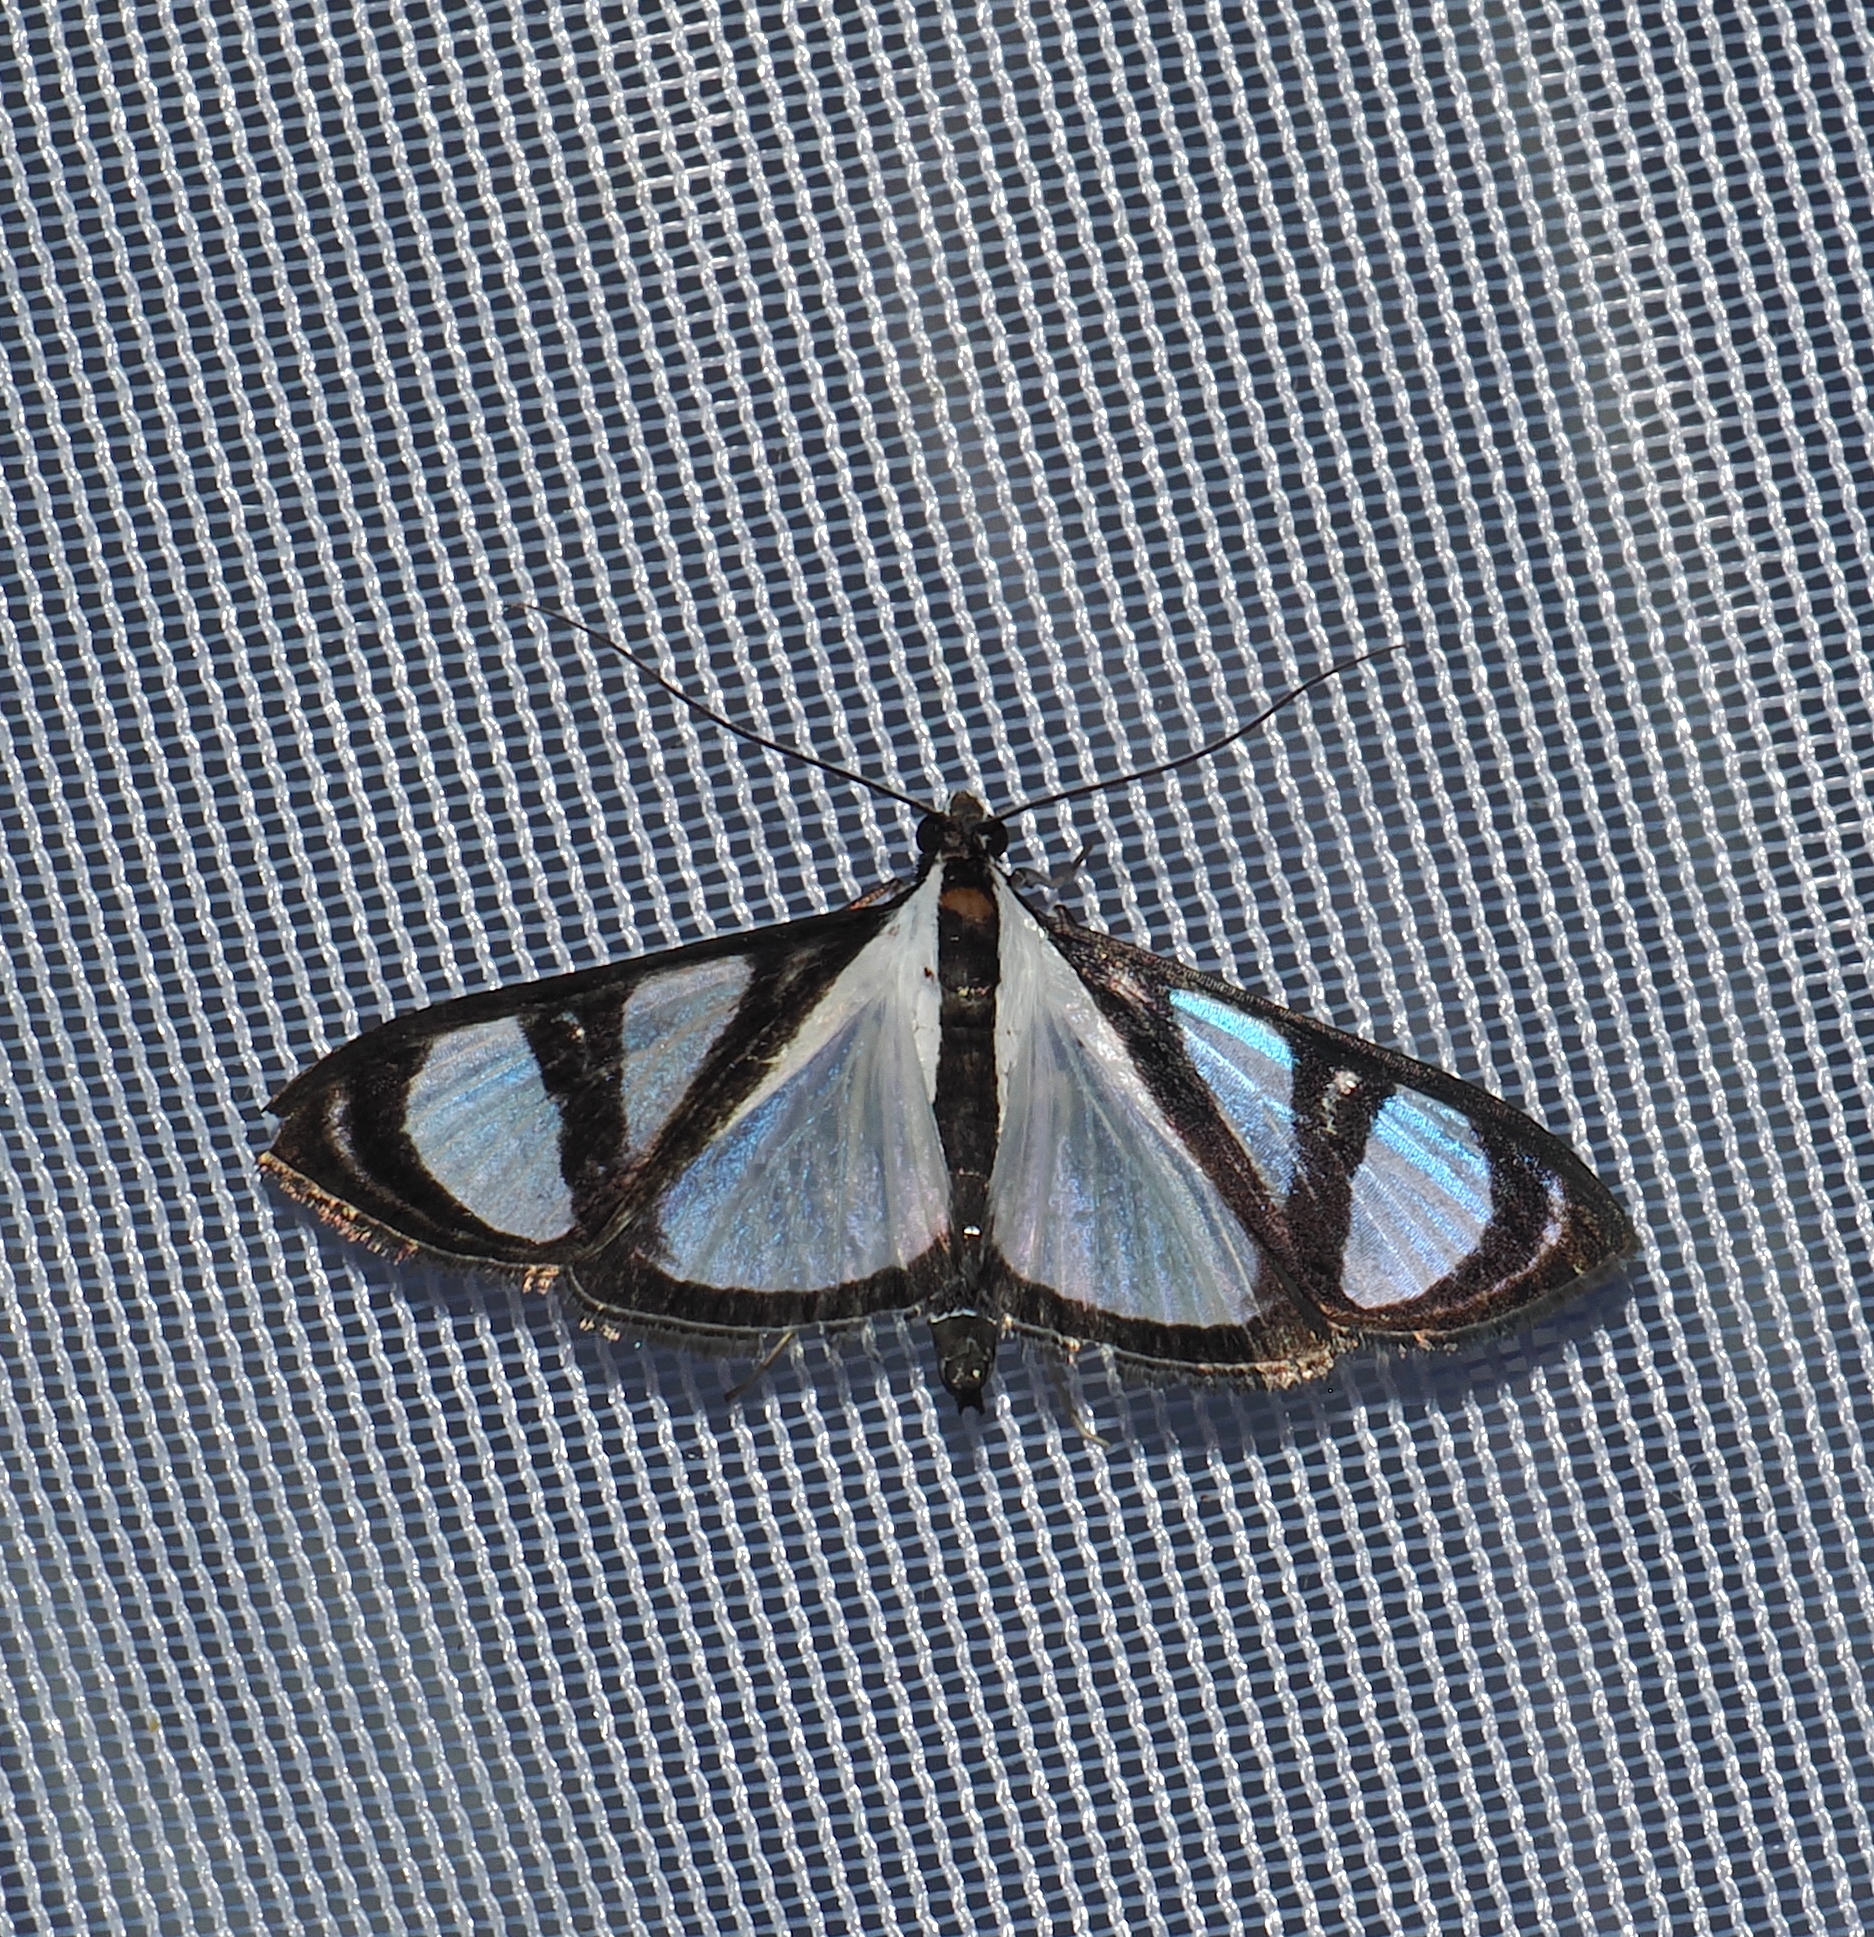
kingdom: Animalia
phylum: Arthropoda
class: Insecta
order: Lepidoptera
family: Crambidae
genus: Glyphodes
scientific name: Glyphodes confinis
